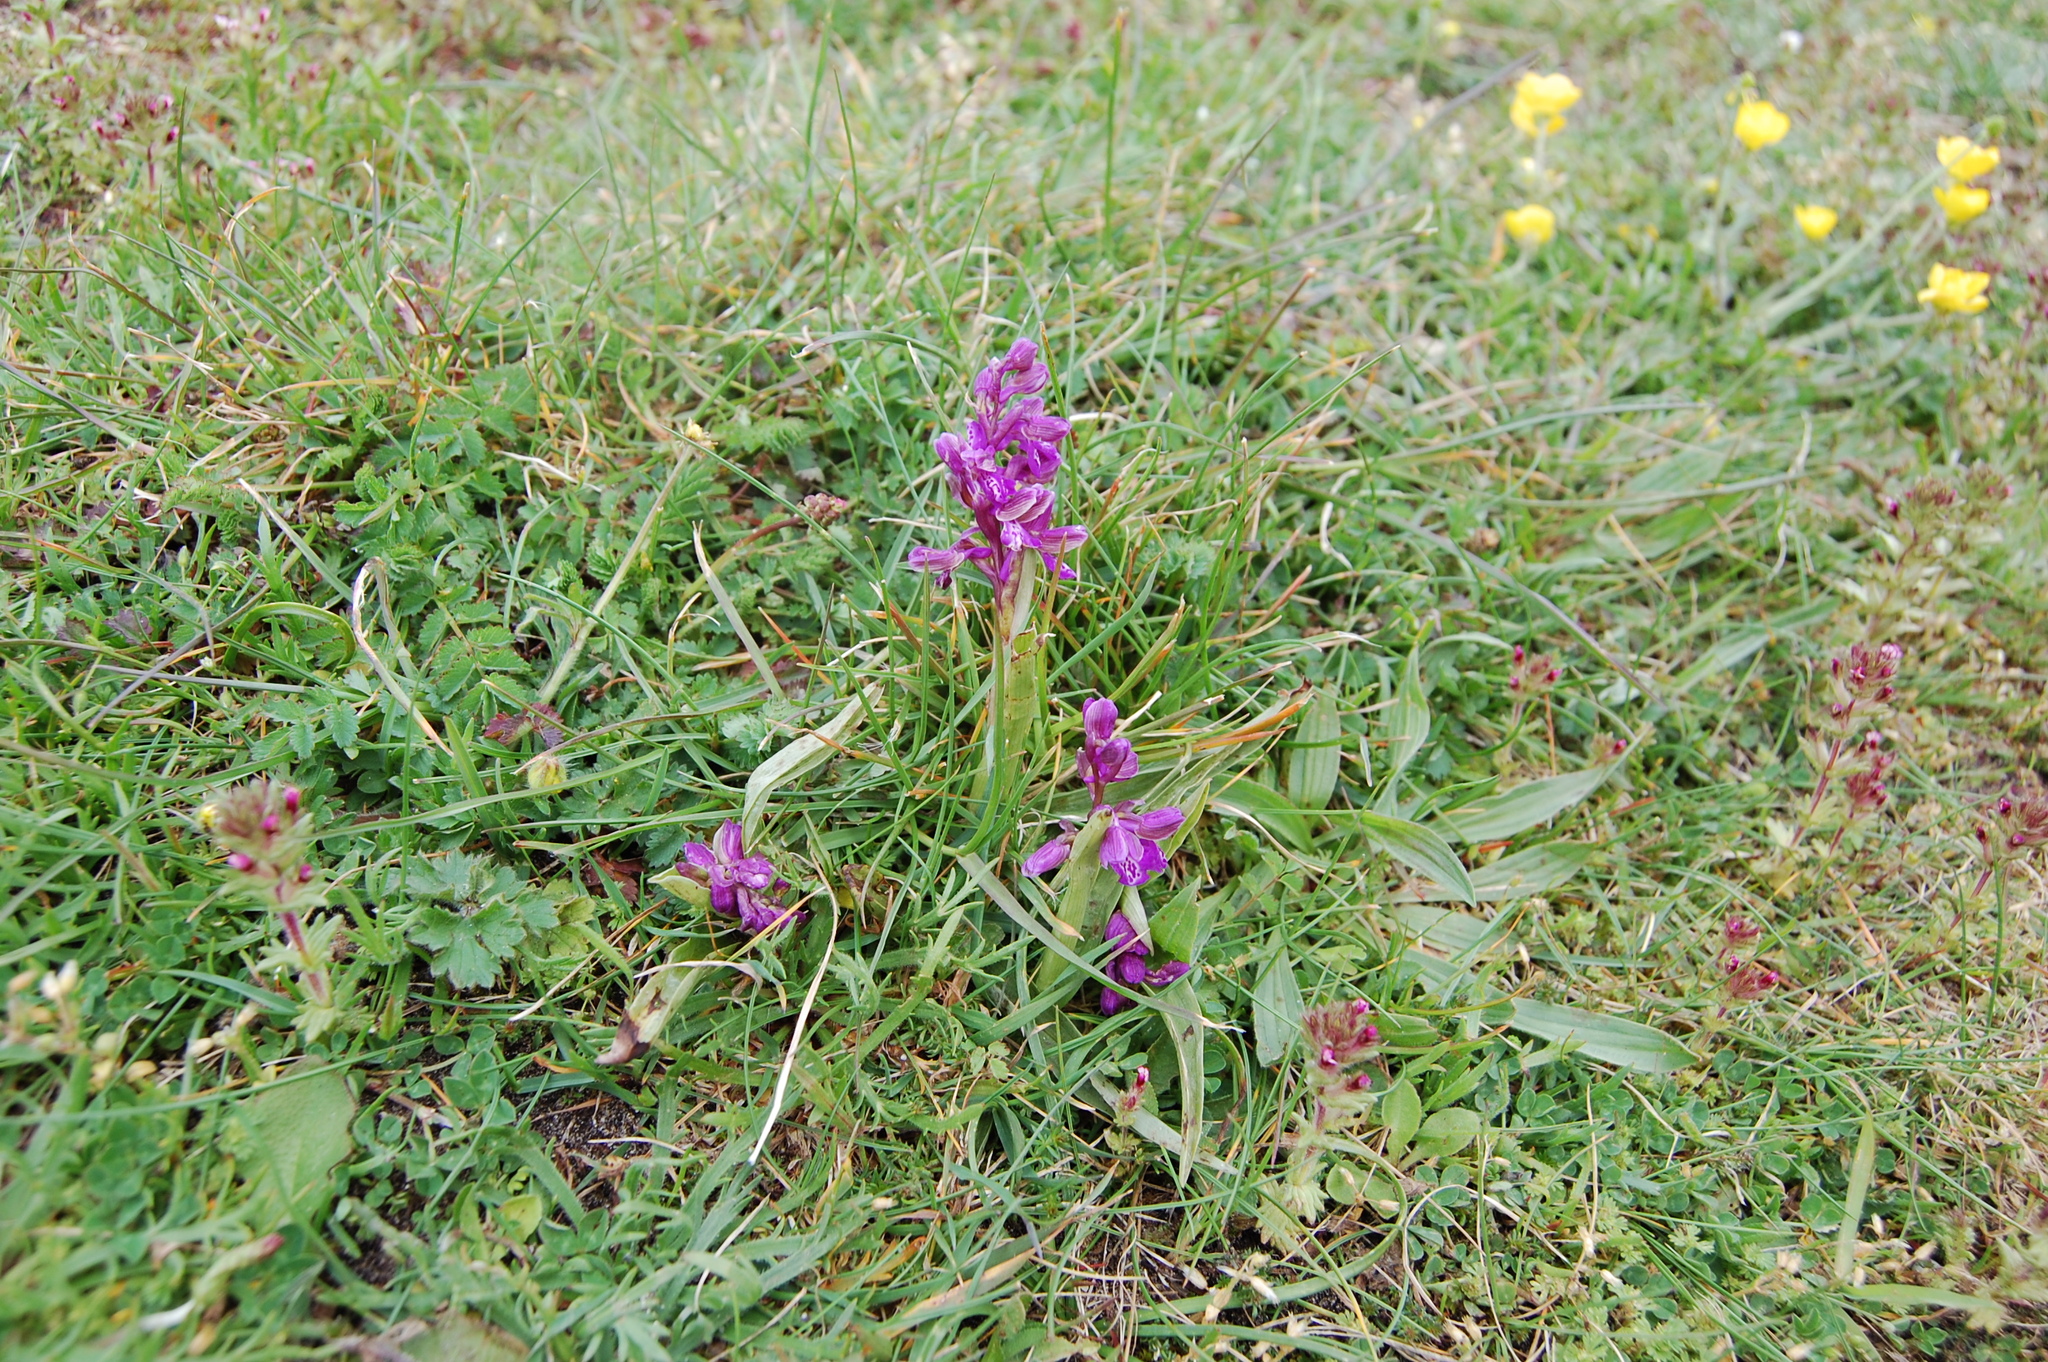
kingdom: Plantae
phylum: Tracheophyta
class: Liliopsida
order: Asparagales
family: Orchidaceae
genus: Anacamptis
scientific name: Anacamptis morio
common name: Green-winged orchid
